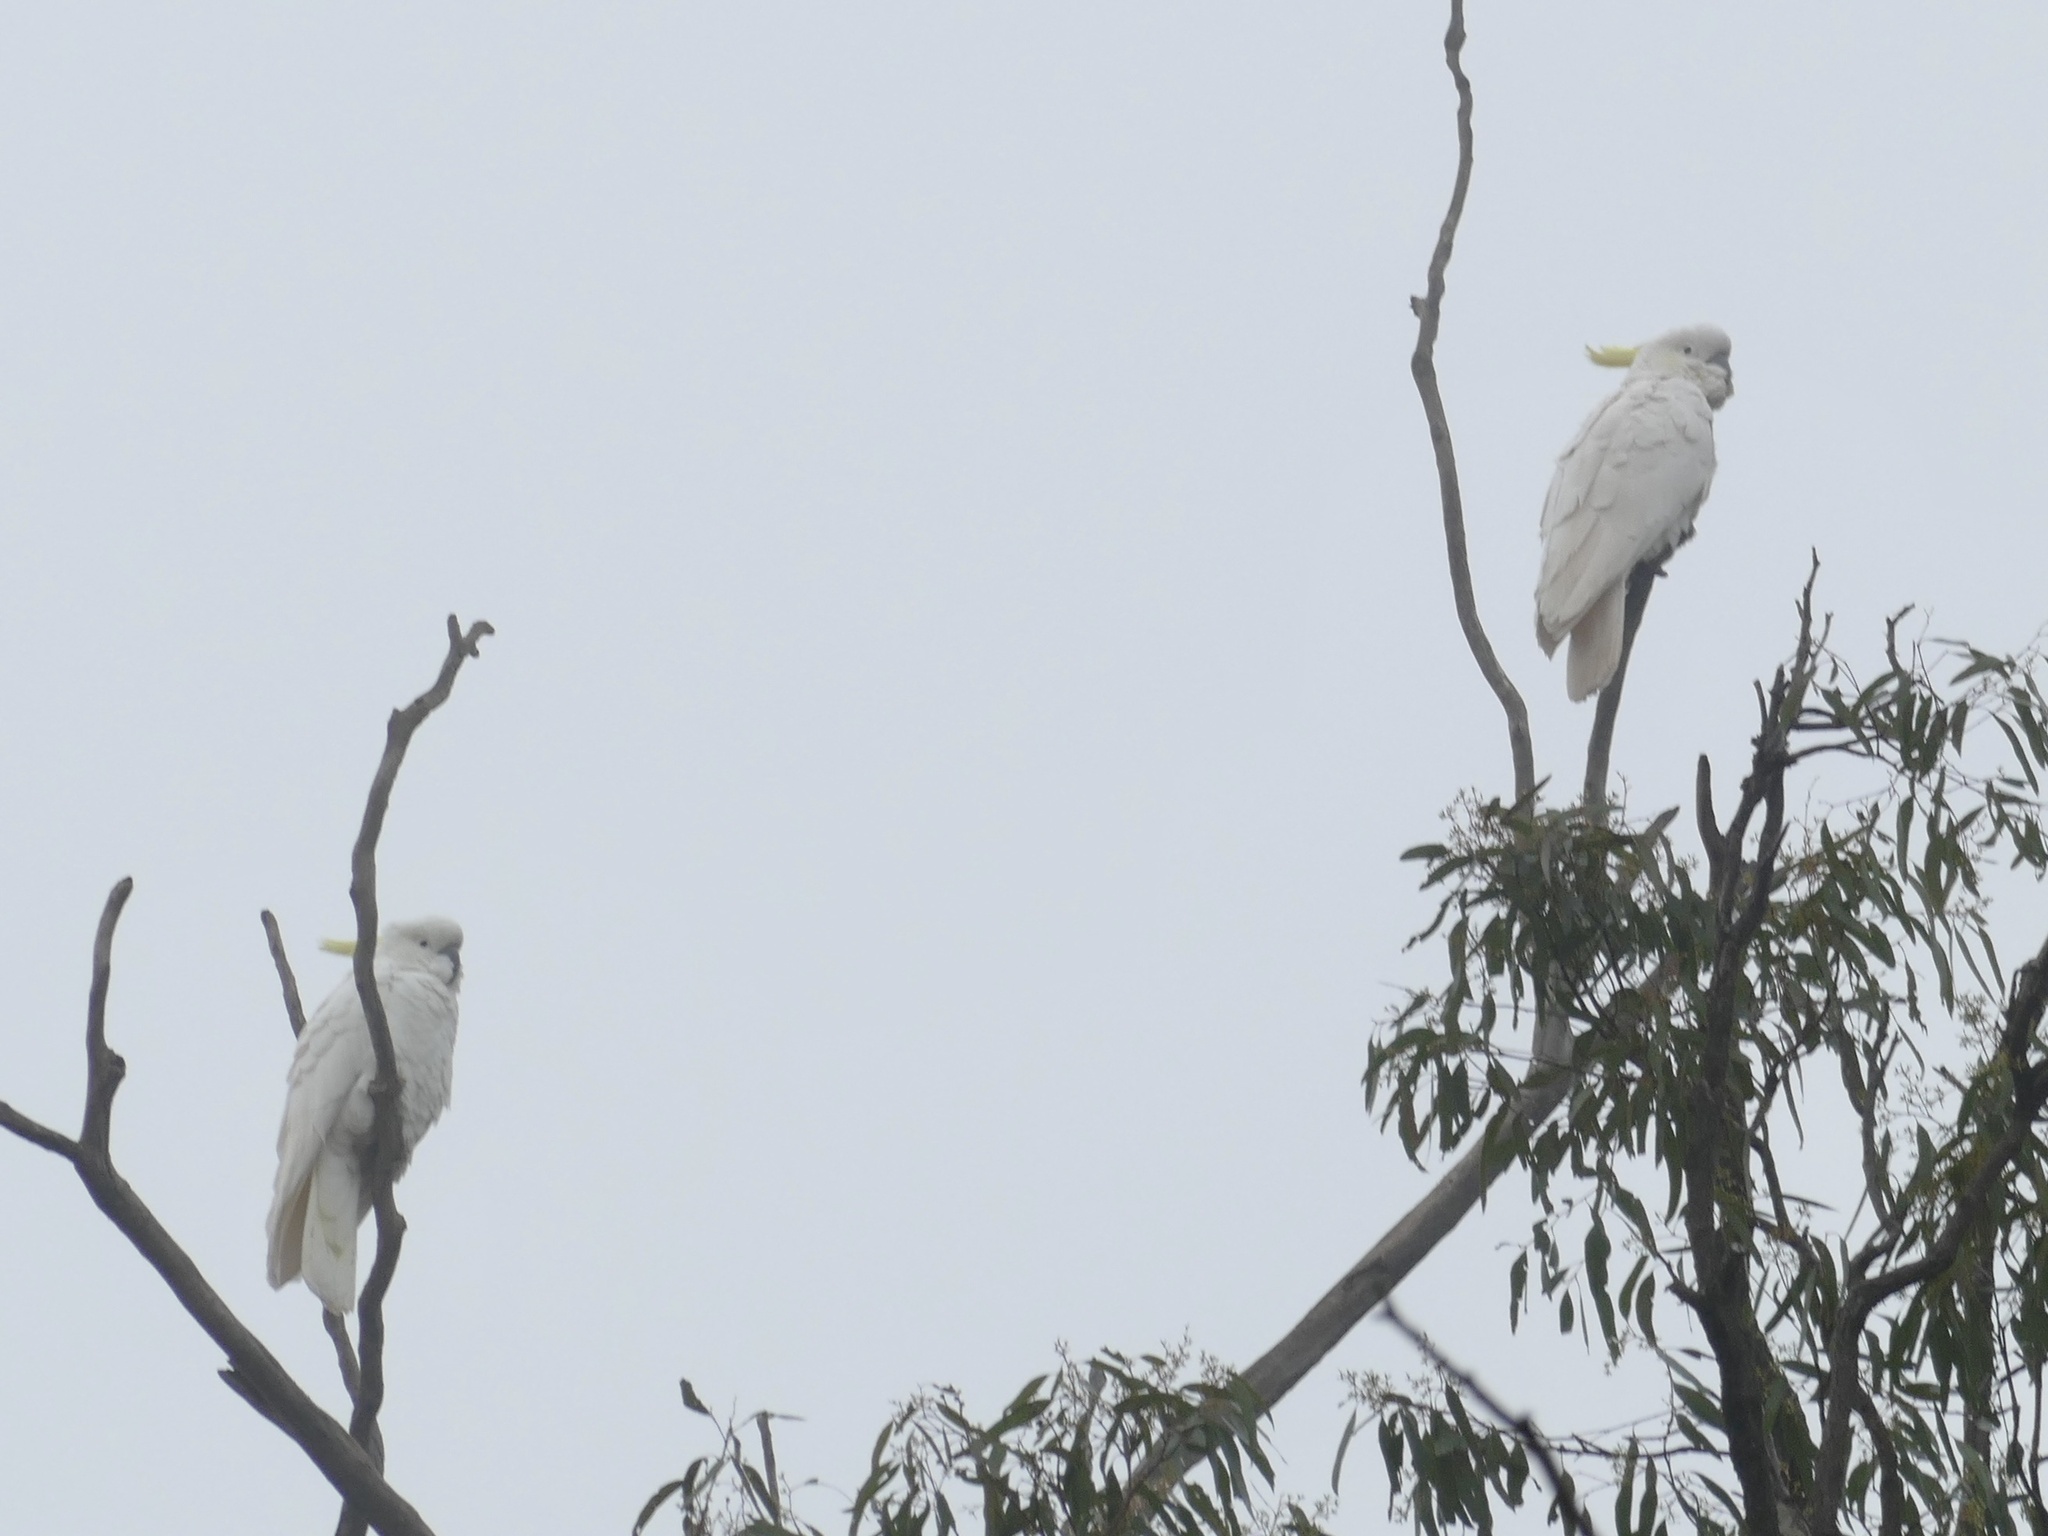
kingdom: Animalia
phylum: Chordata
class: Aves
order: Psittaciformes
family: Psittacidae
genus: Cacatua
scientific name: Cacatua galerita
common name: Sulphur-crested cockatoo
